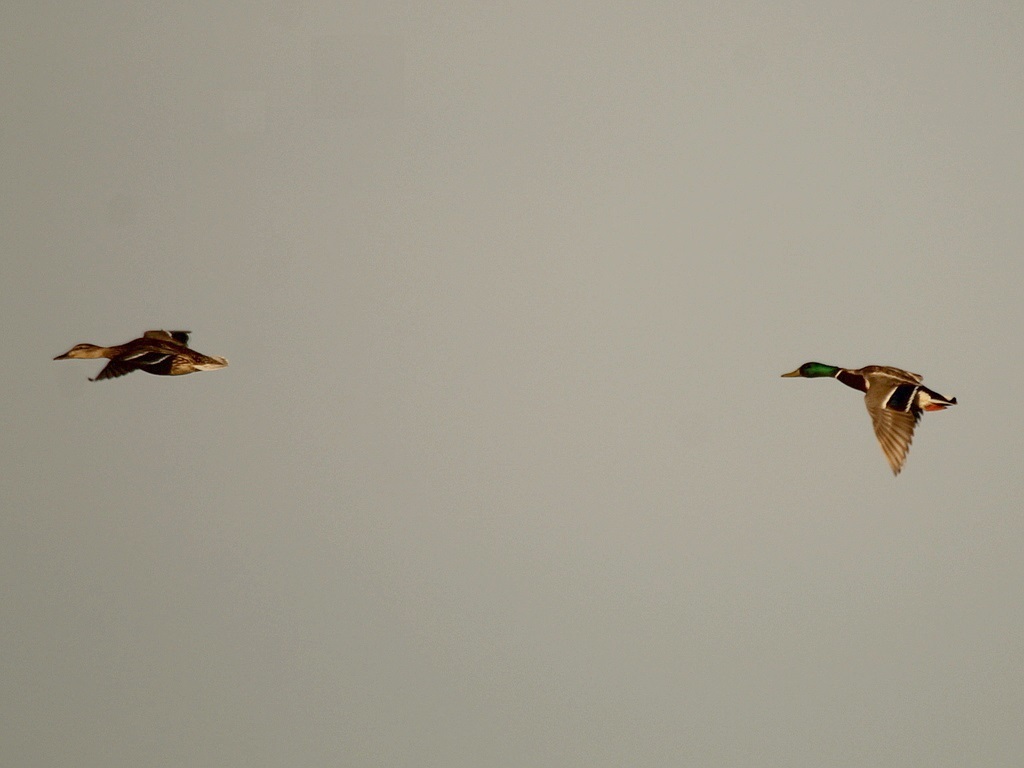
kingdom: Animalia
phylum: Chordata
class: Aves
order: Anseriformes
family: Anatidae
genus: Anas
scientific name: Anas platyrhynchos
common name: Mallard
